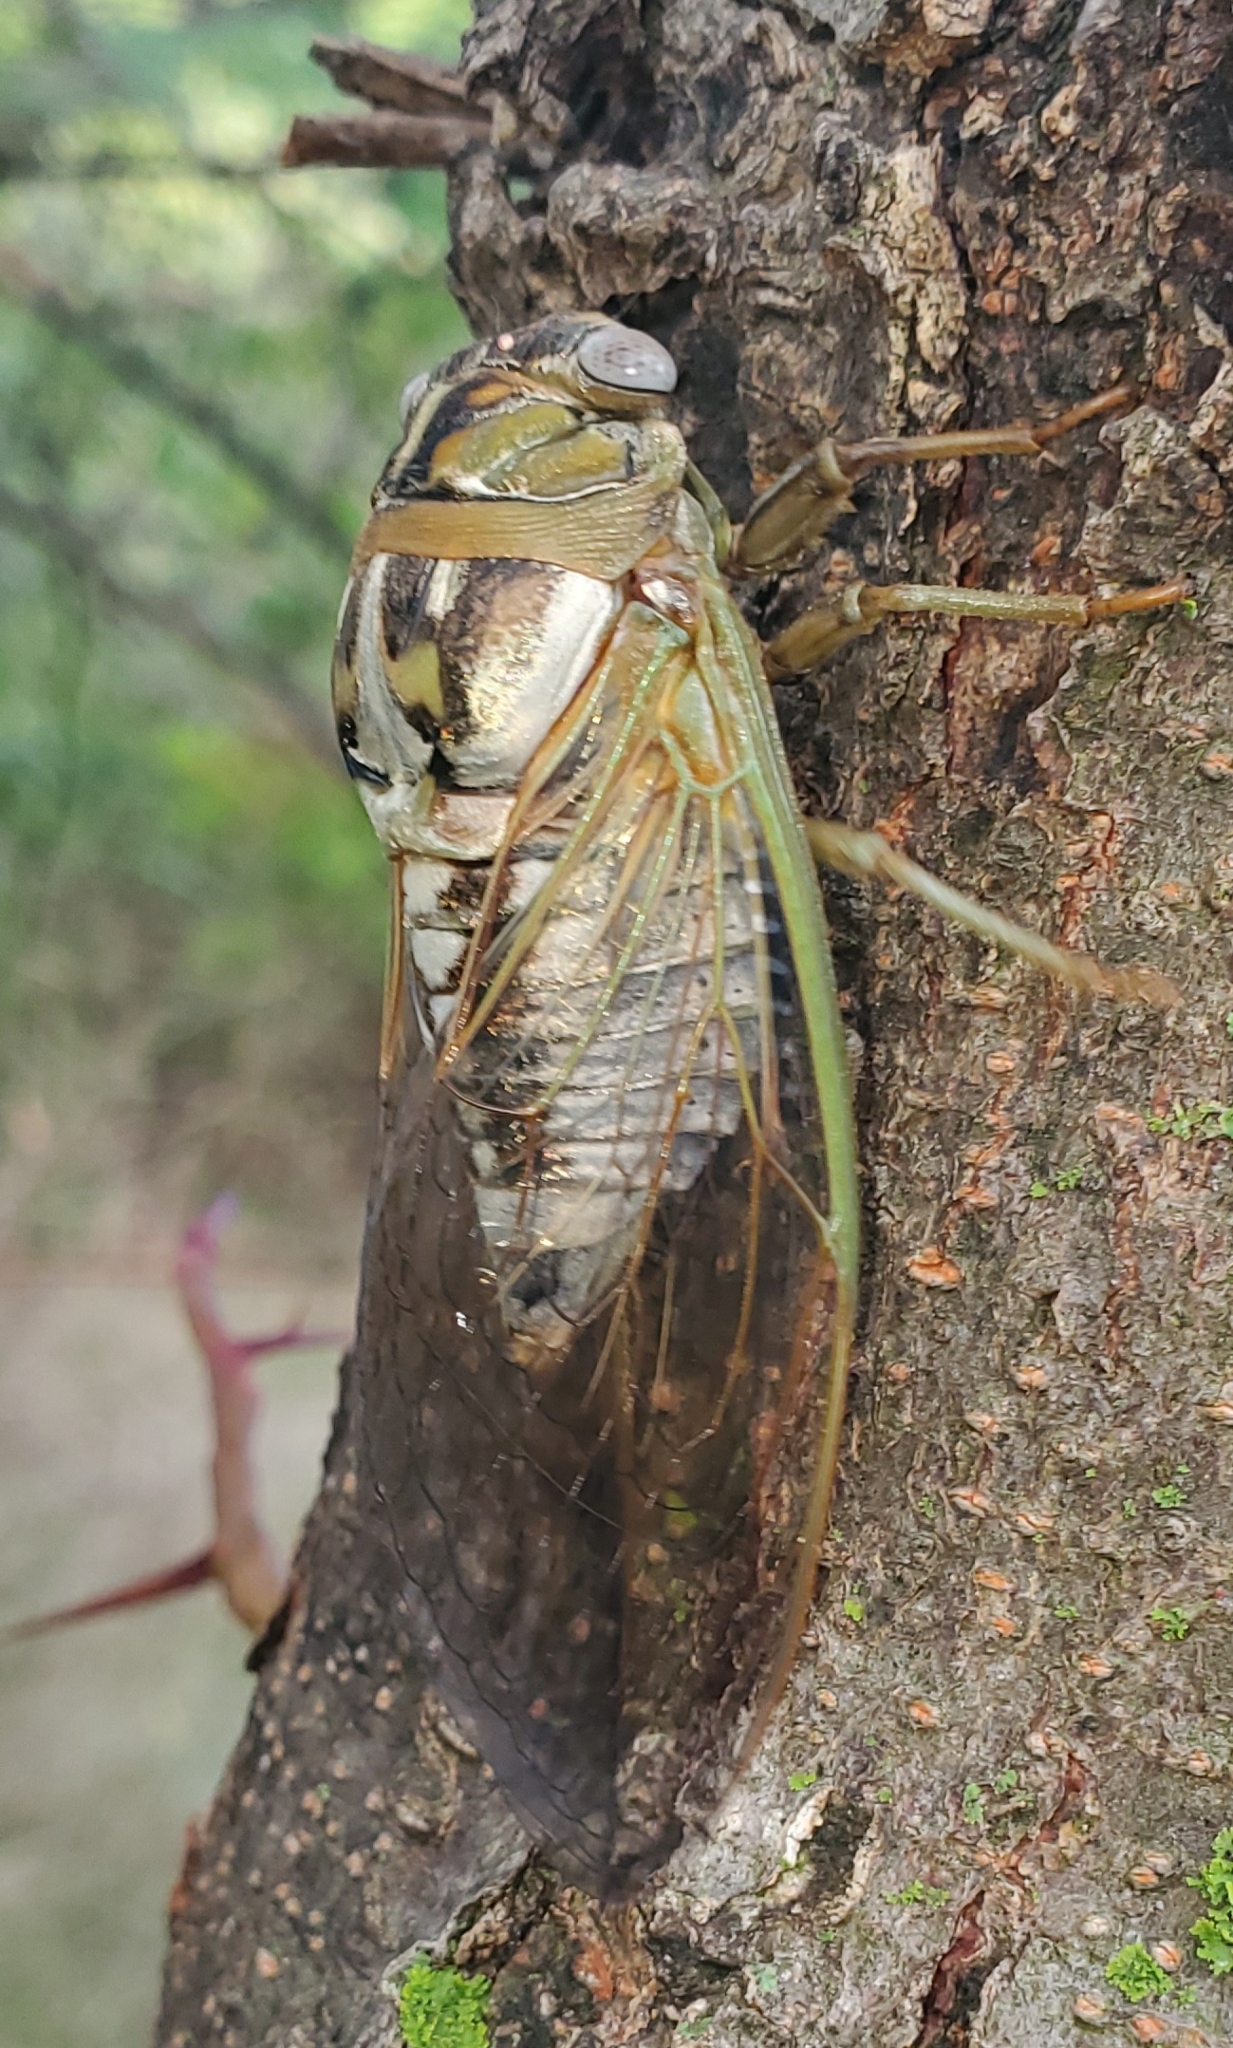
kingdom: Animalia
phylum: Arthropoda
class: Insecta
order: Hemiptera
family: Cicadidae
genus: Megatibicen
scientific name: Megatibicen dealbatus
